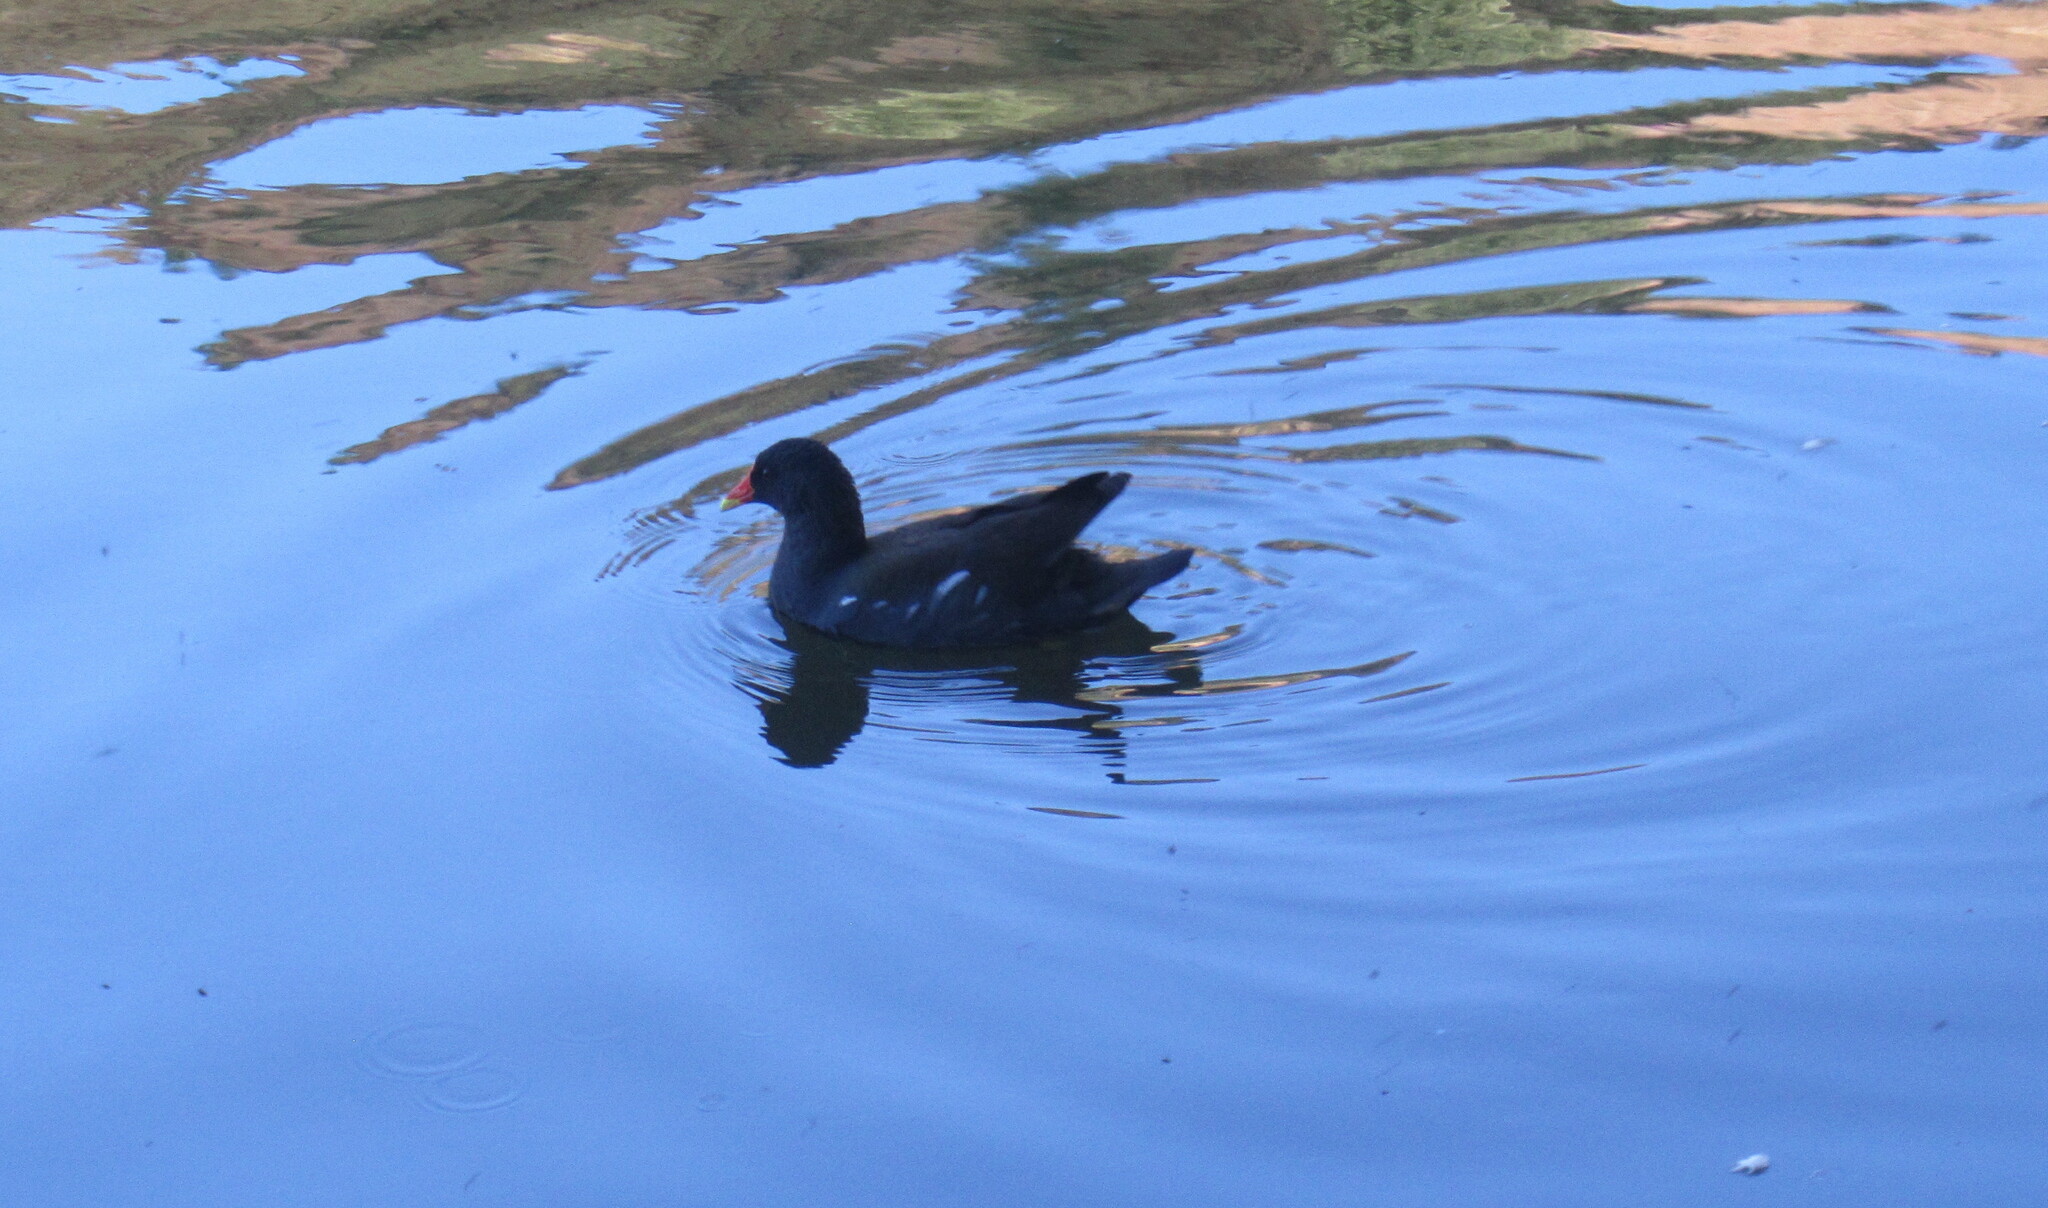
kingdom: Animalia
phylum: Chordata
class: Aves
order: Gruiformes
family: Rallidae
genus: Gallinula
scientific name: Gallinula chloropus
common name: Common moorhen
